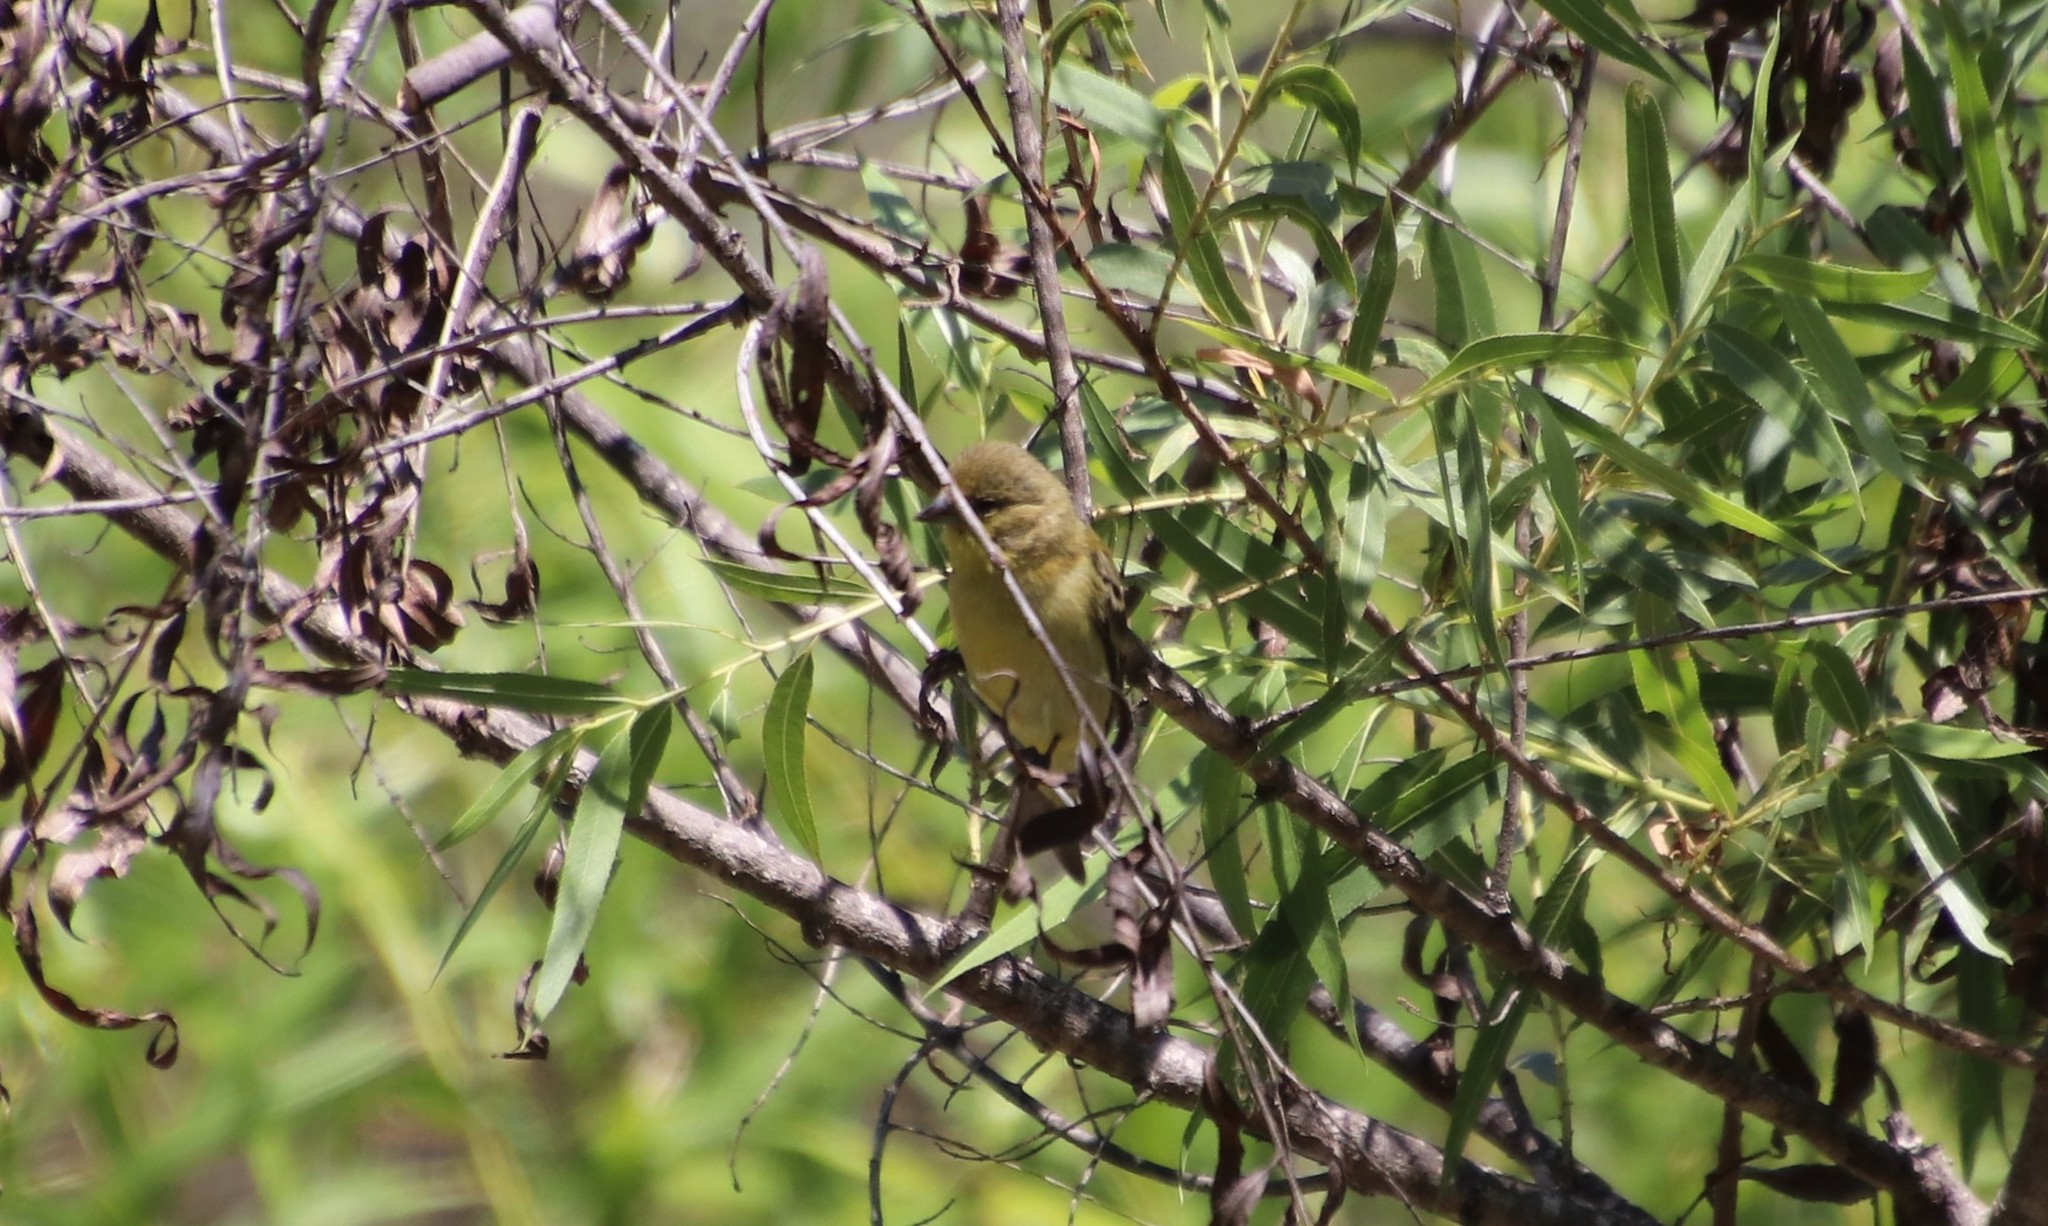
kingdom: Animalia
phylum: Chordata
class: Aves
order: Passeriformes
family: Fringillidae
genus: Spinus
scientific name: Spinus psaltria
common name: Lesser goldfinch
